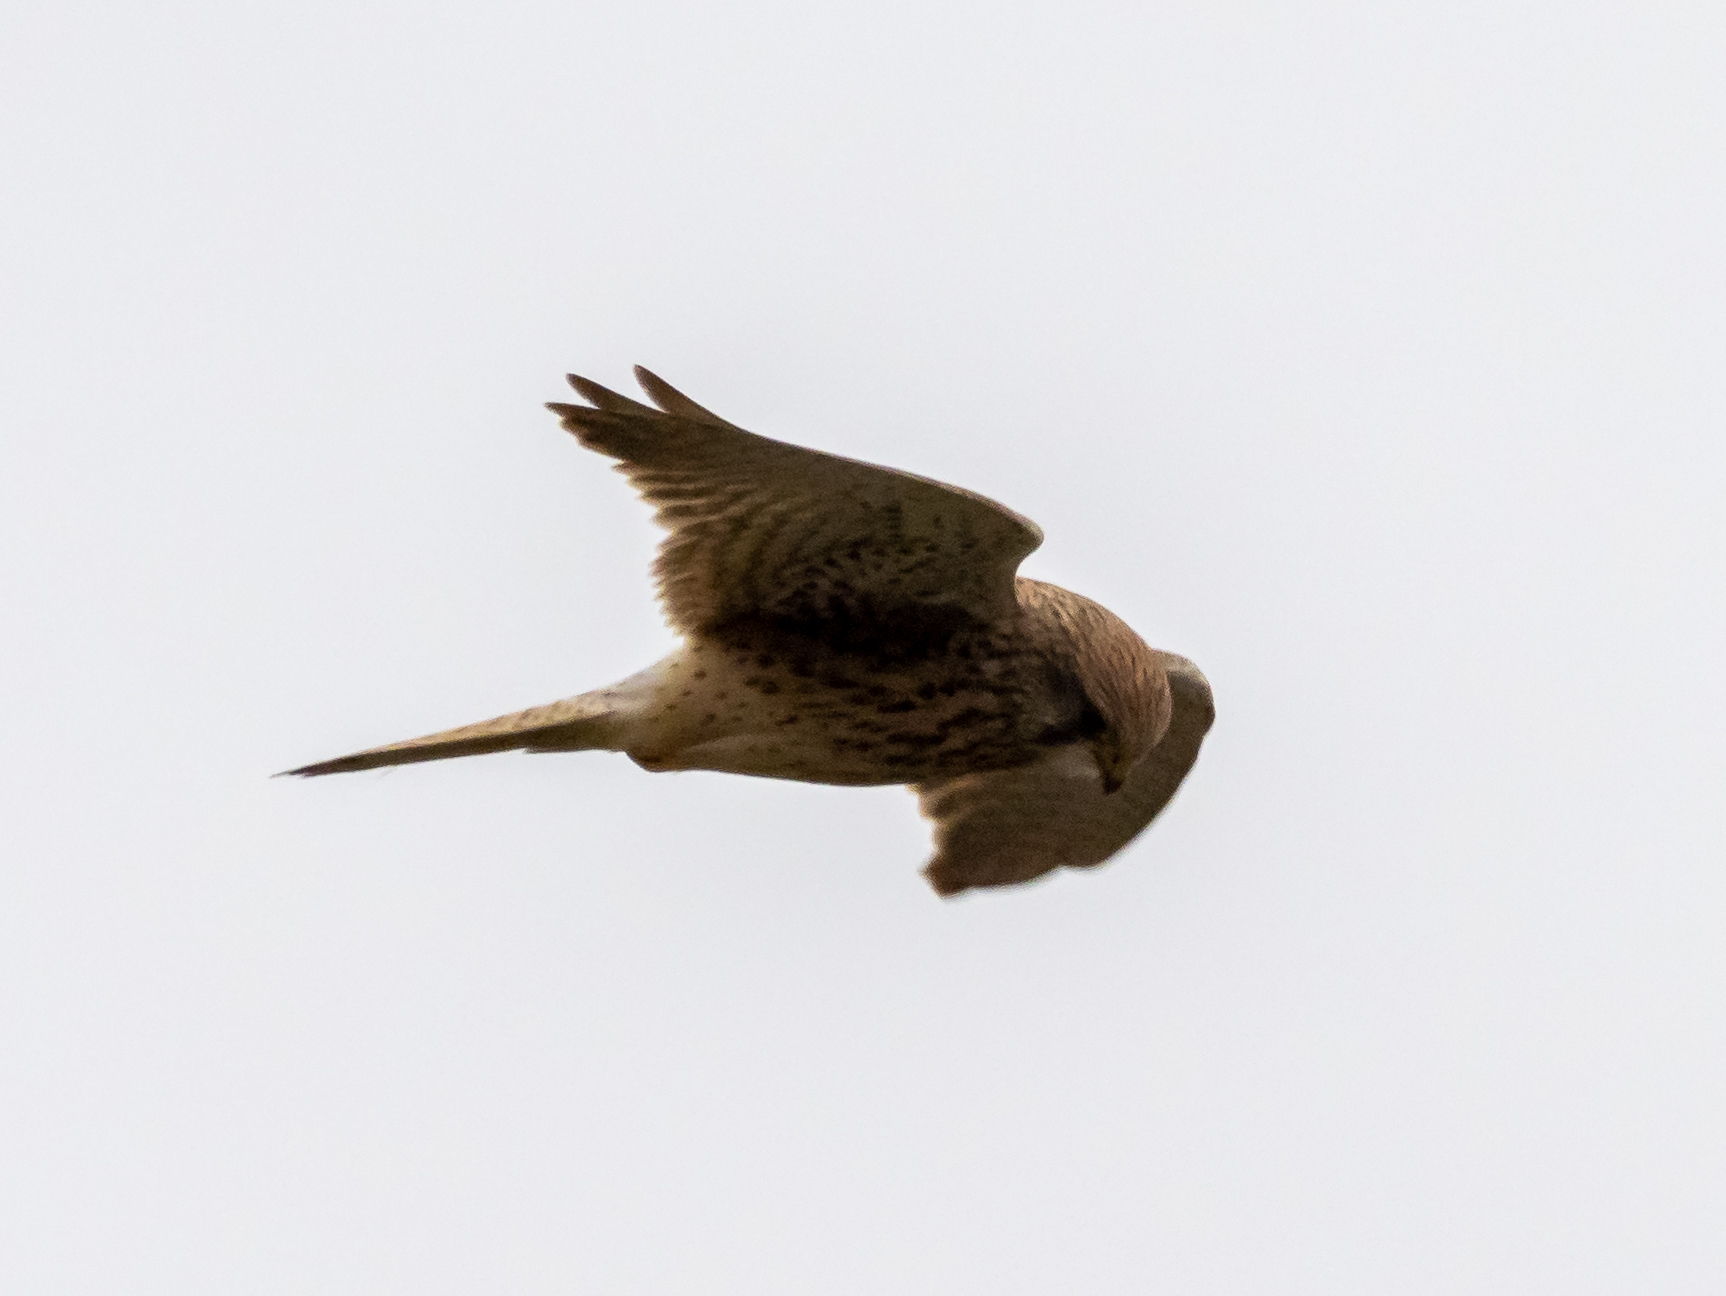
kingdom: Animalia
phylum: Chordata
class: Aves
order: Falconiformes
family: Falconidae
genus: Falco
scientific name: Falco tinnunculus
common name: Common kestrel
